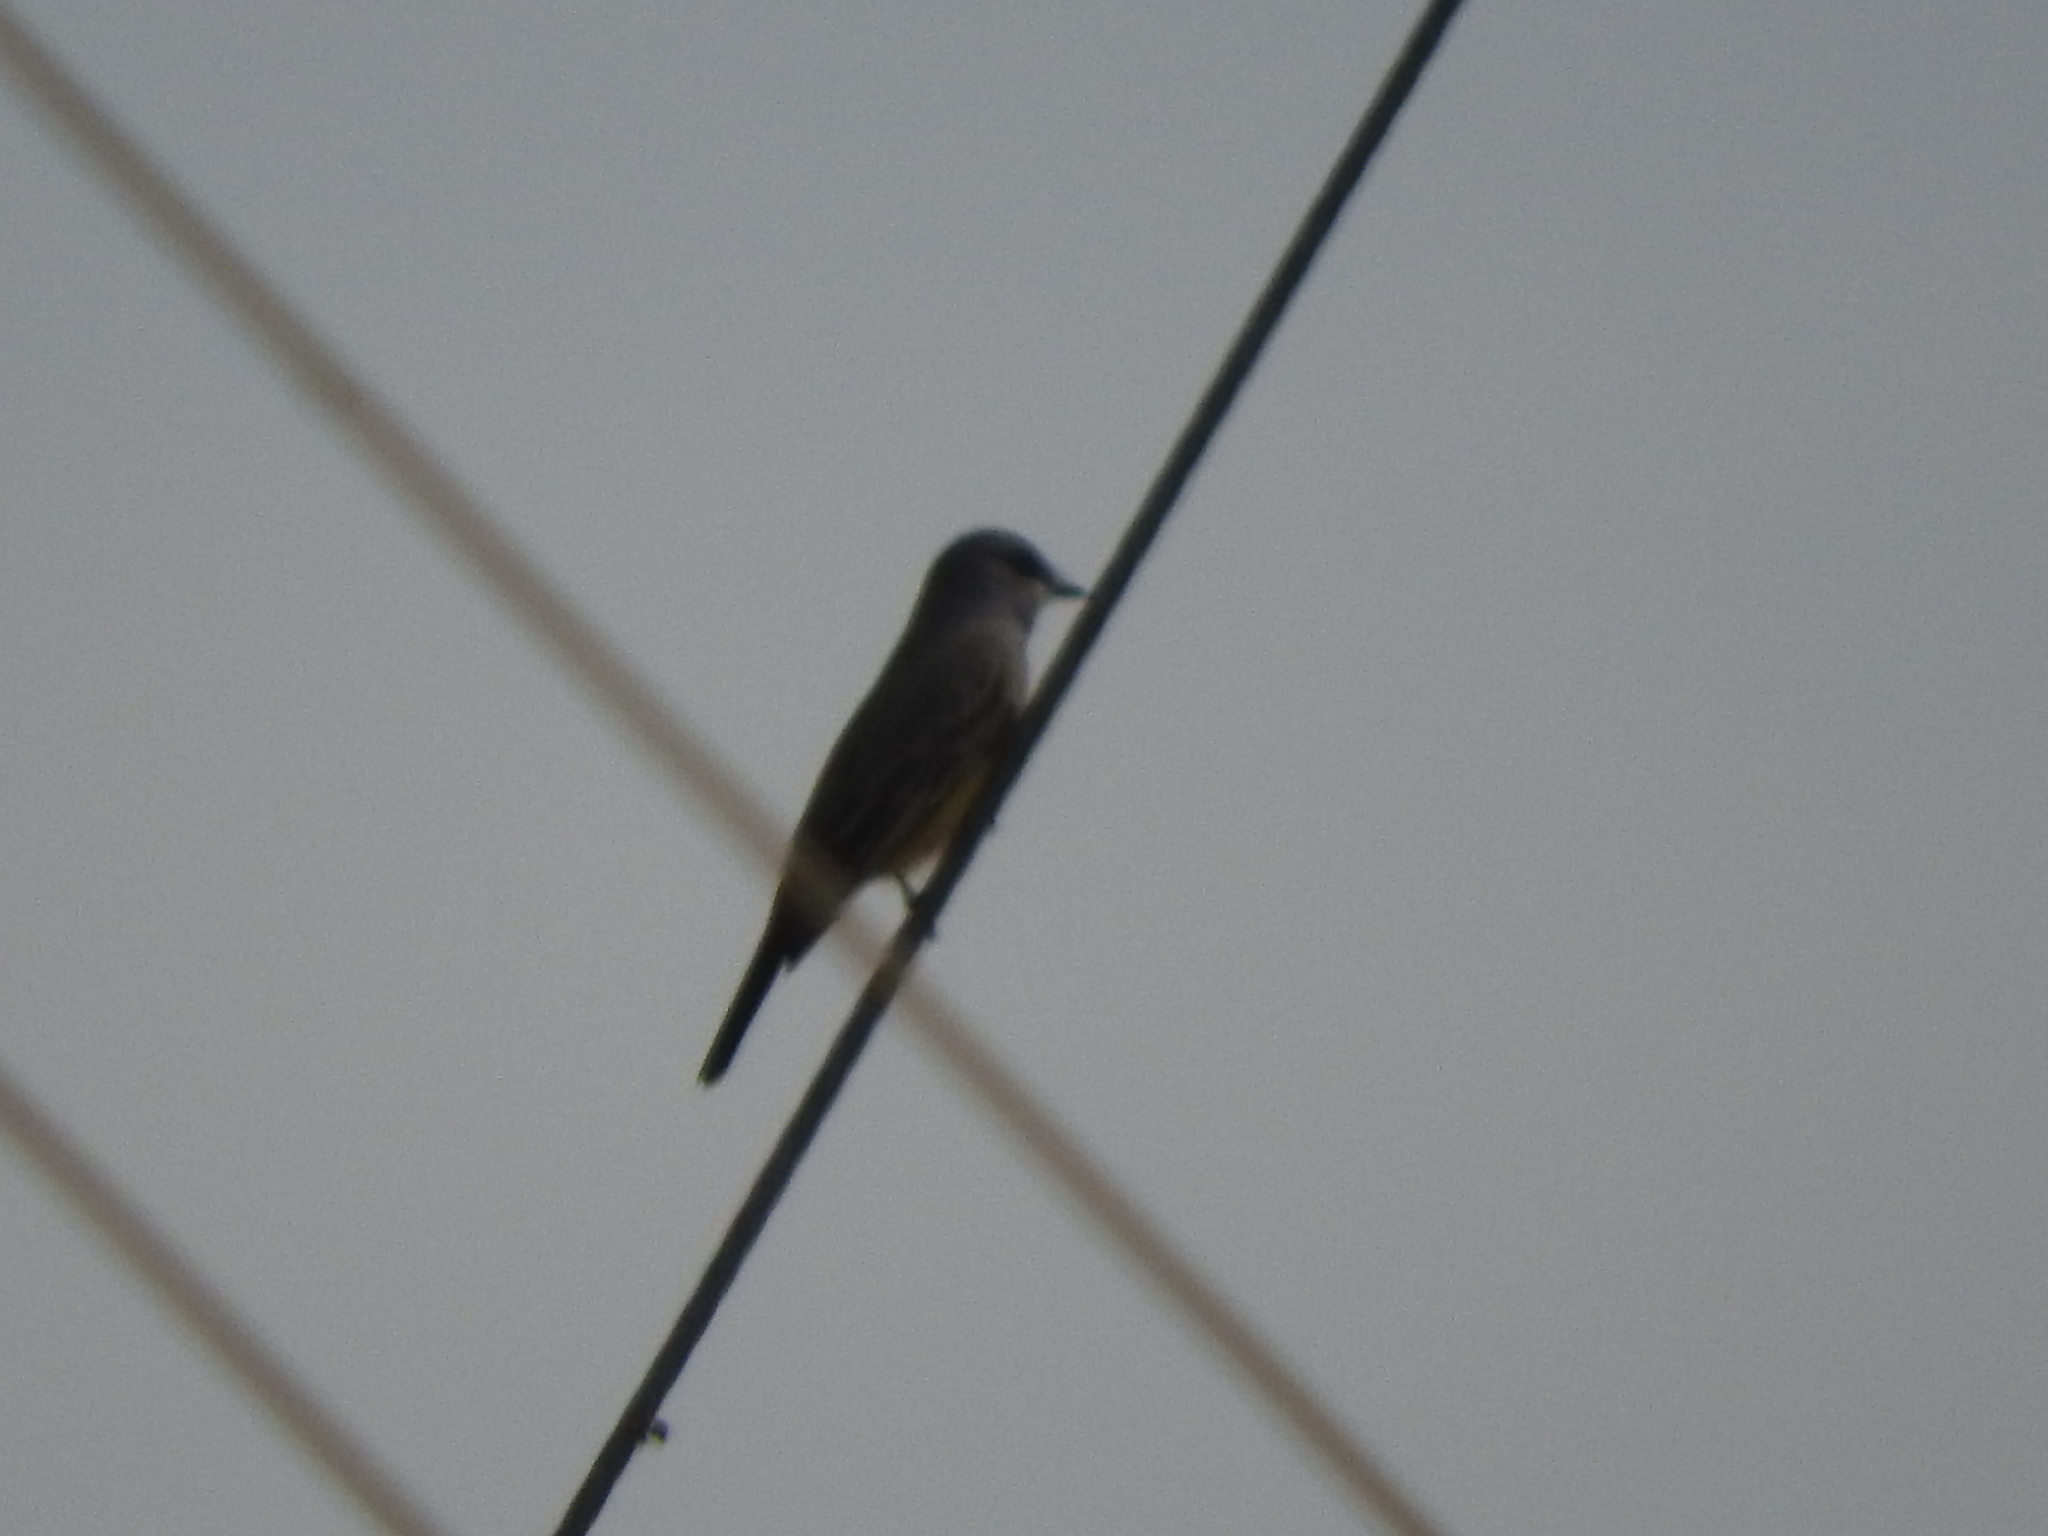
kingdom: Animalia
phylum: Chordata
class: Aves
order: Passeriformes
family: Tyrannidae
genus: Tyrannus
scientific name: Tyrannus vociferans
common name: Cassin's kingbird
